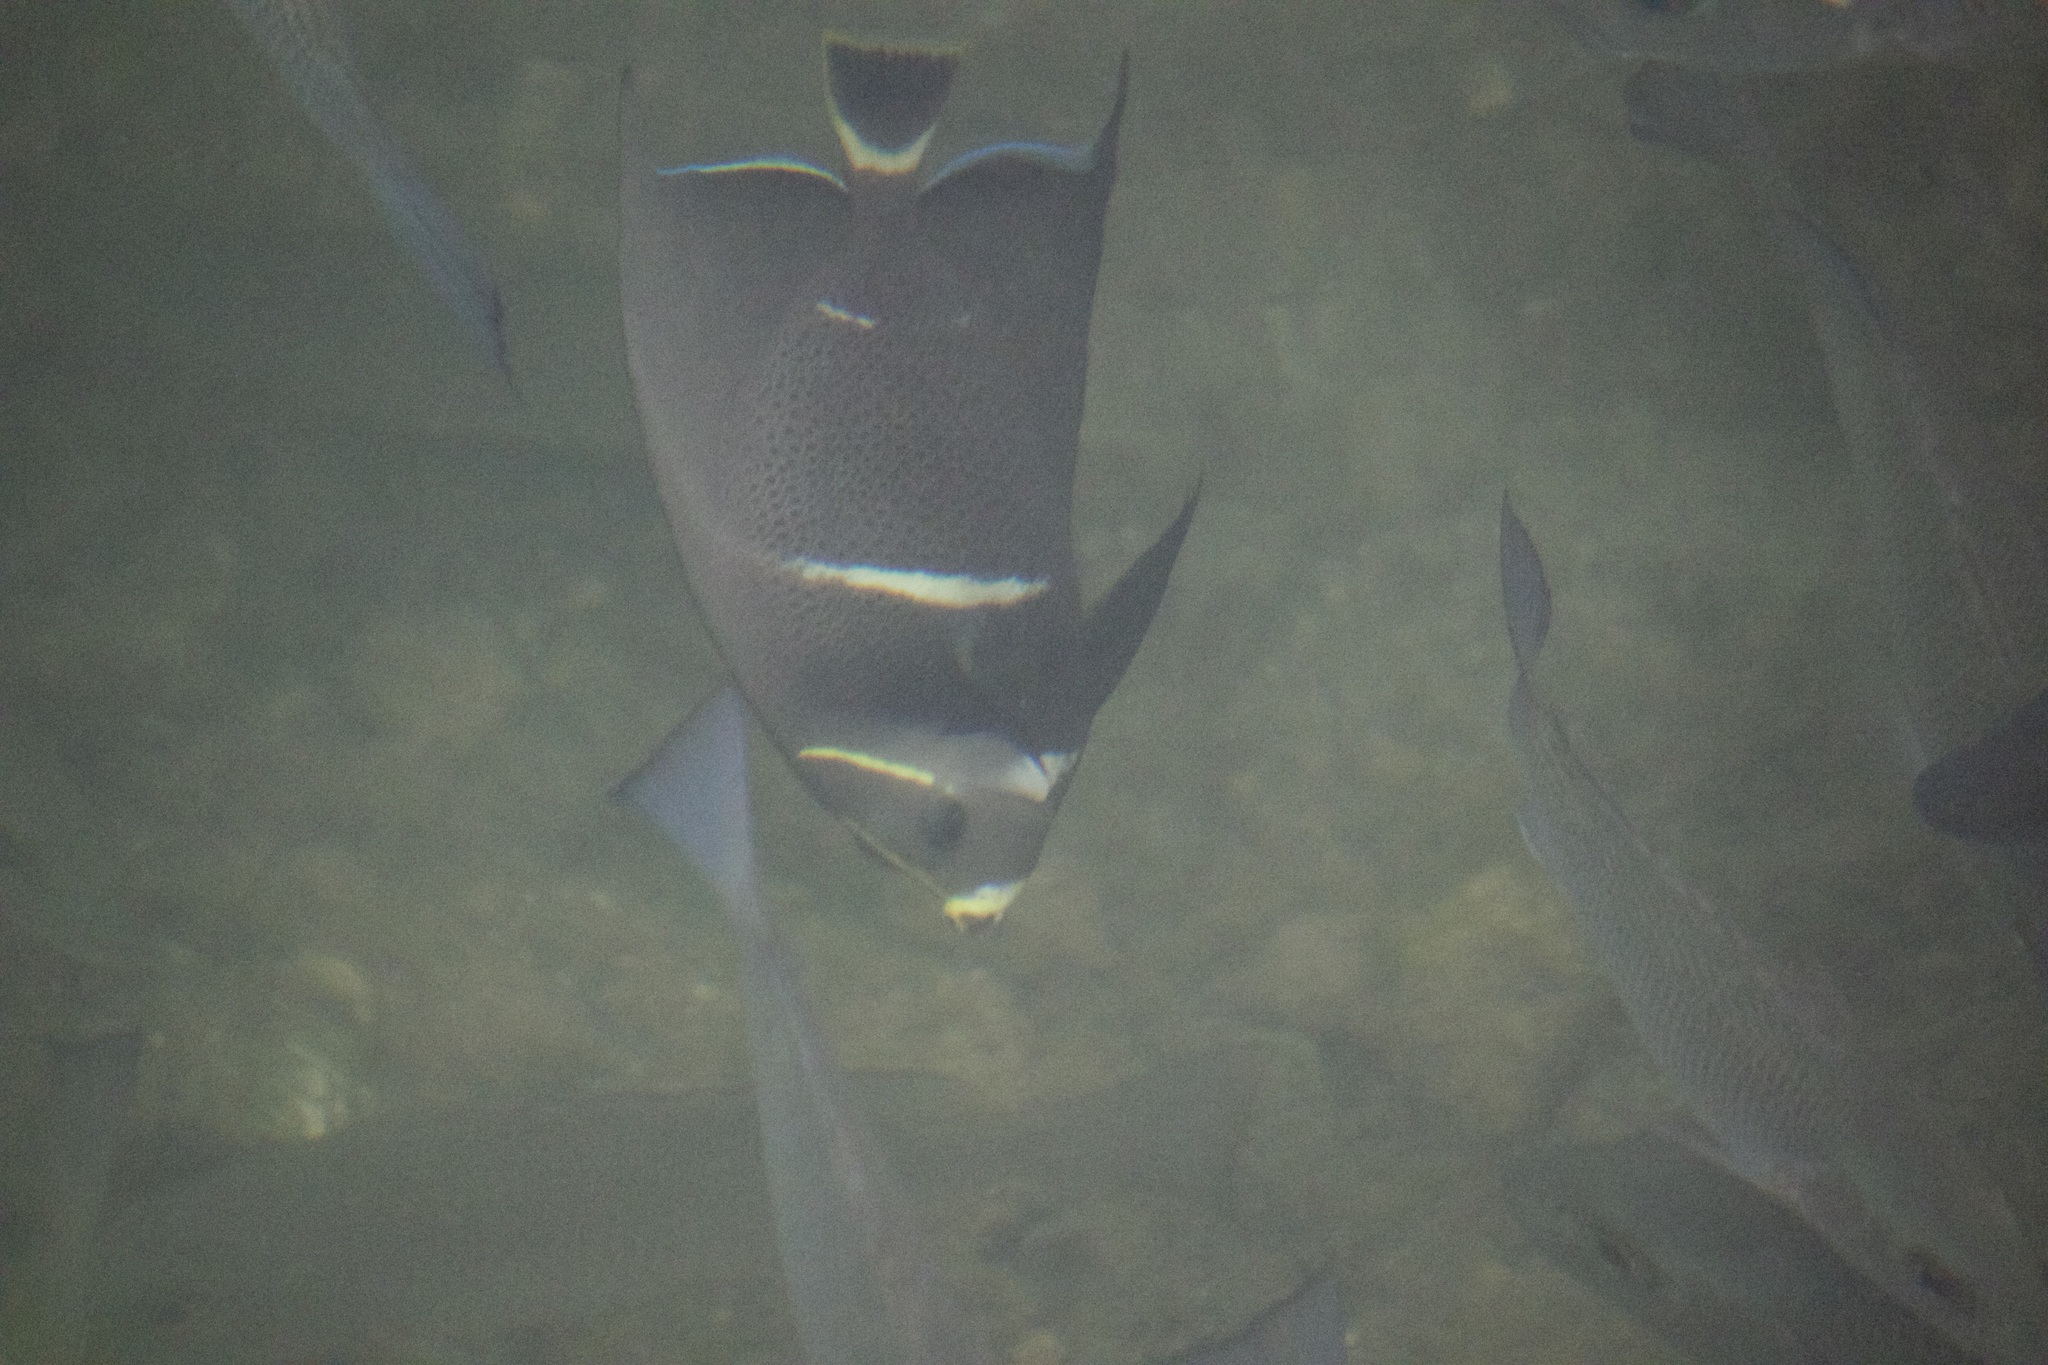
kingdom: Animalia
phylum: Chordata
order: Perciformes
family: Pomacanthidae
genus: Pomacanthus
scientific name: Pomacanthus arcuatus
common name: Gray angelfish
